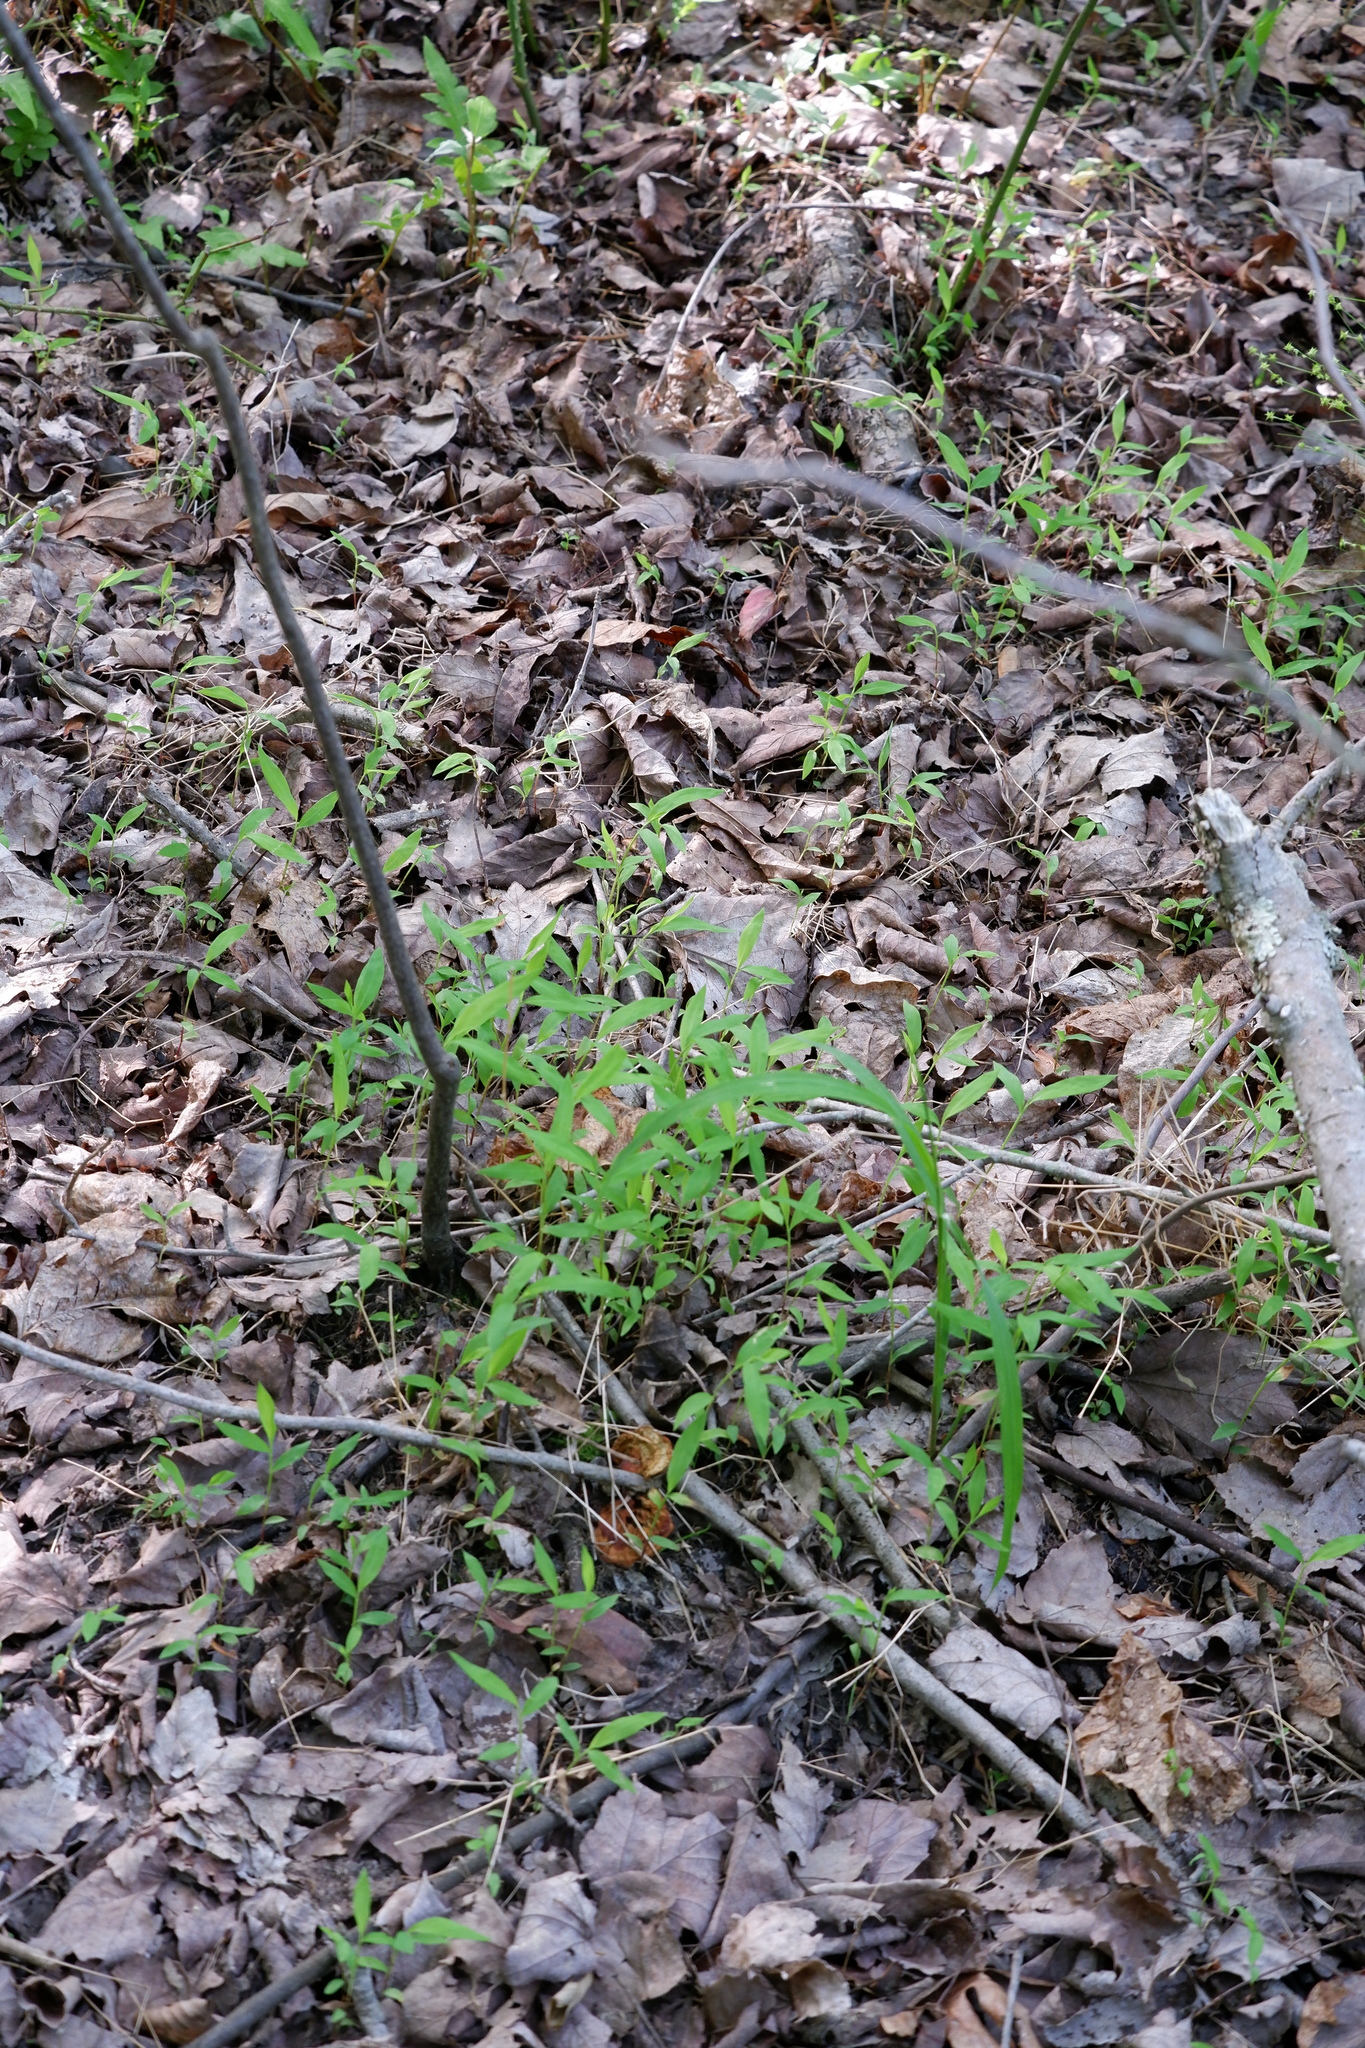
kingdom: Plantae
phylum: Tracheophyta
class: Liliopsida
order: Poales
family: Poaceae
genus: Microstegium
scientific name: Microstegium vimineum
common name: Japanese stiltgrass
